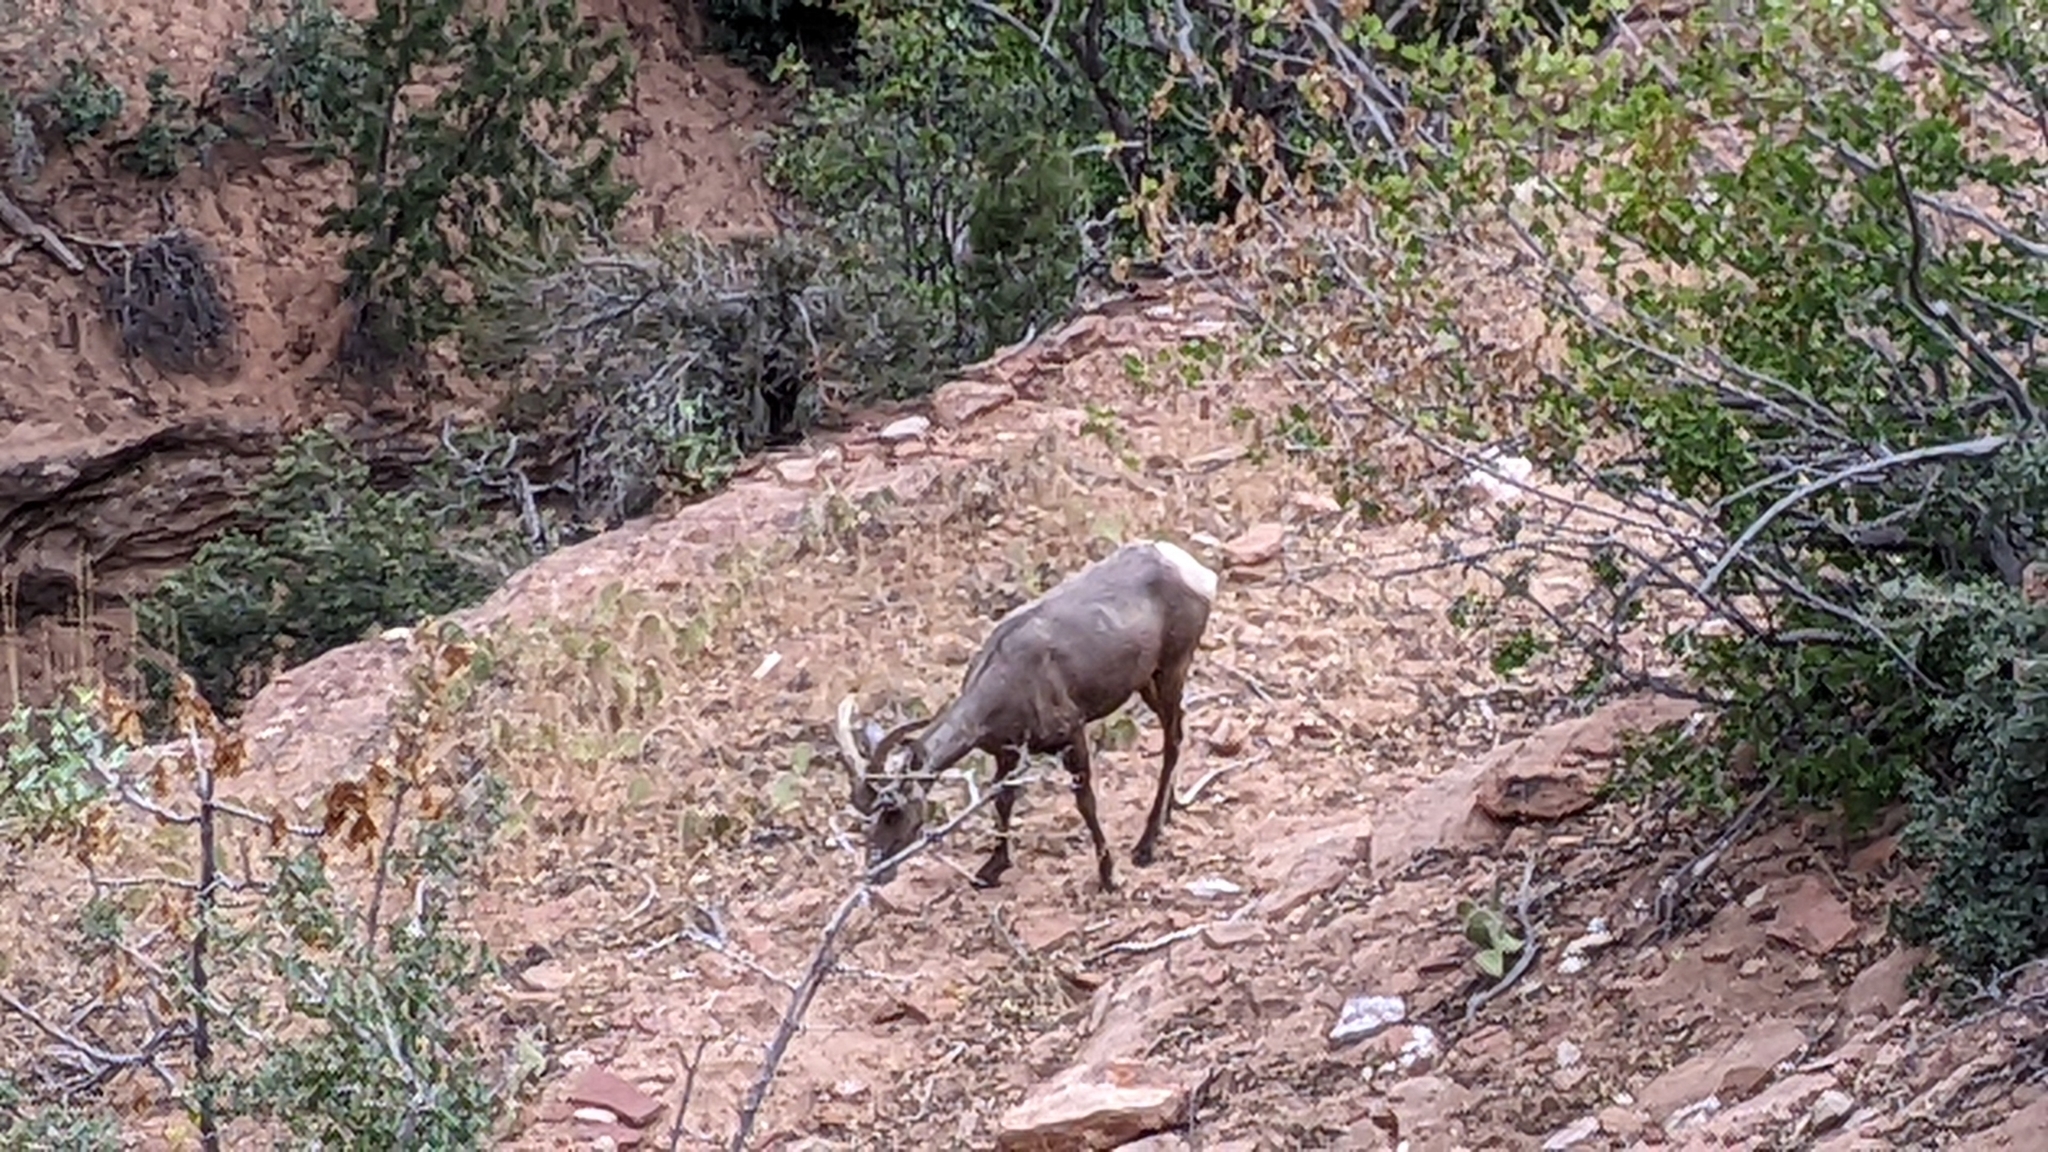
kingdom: Animalia
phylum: Chordata
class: Mammalia
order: Artiodactyla
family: Bovidae
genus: Ovis
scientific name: Ovis canadensis
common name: Bighorn sheep
